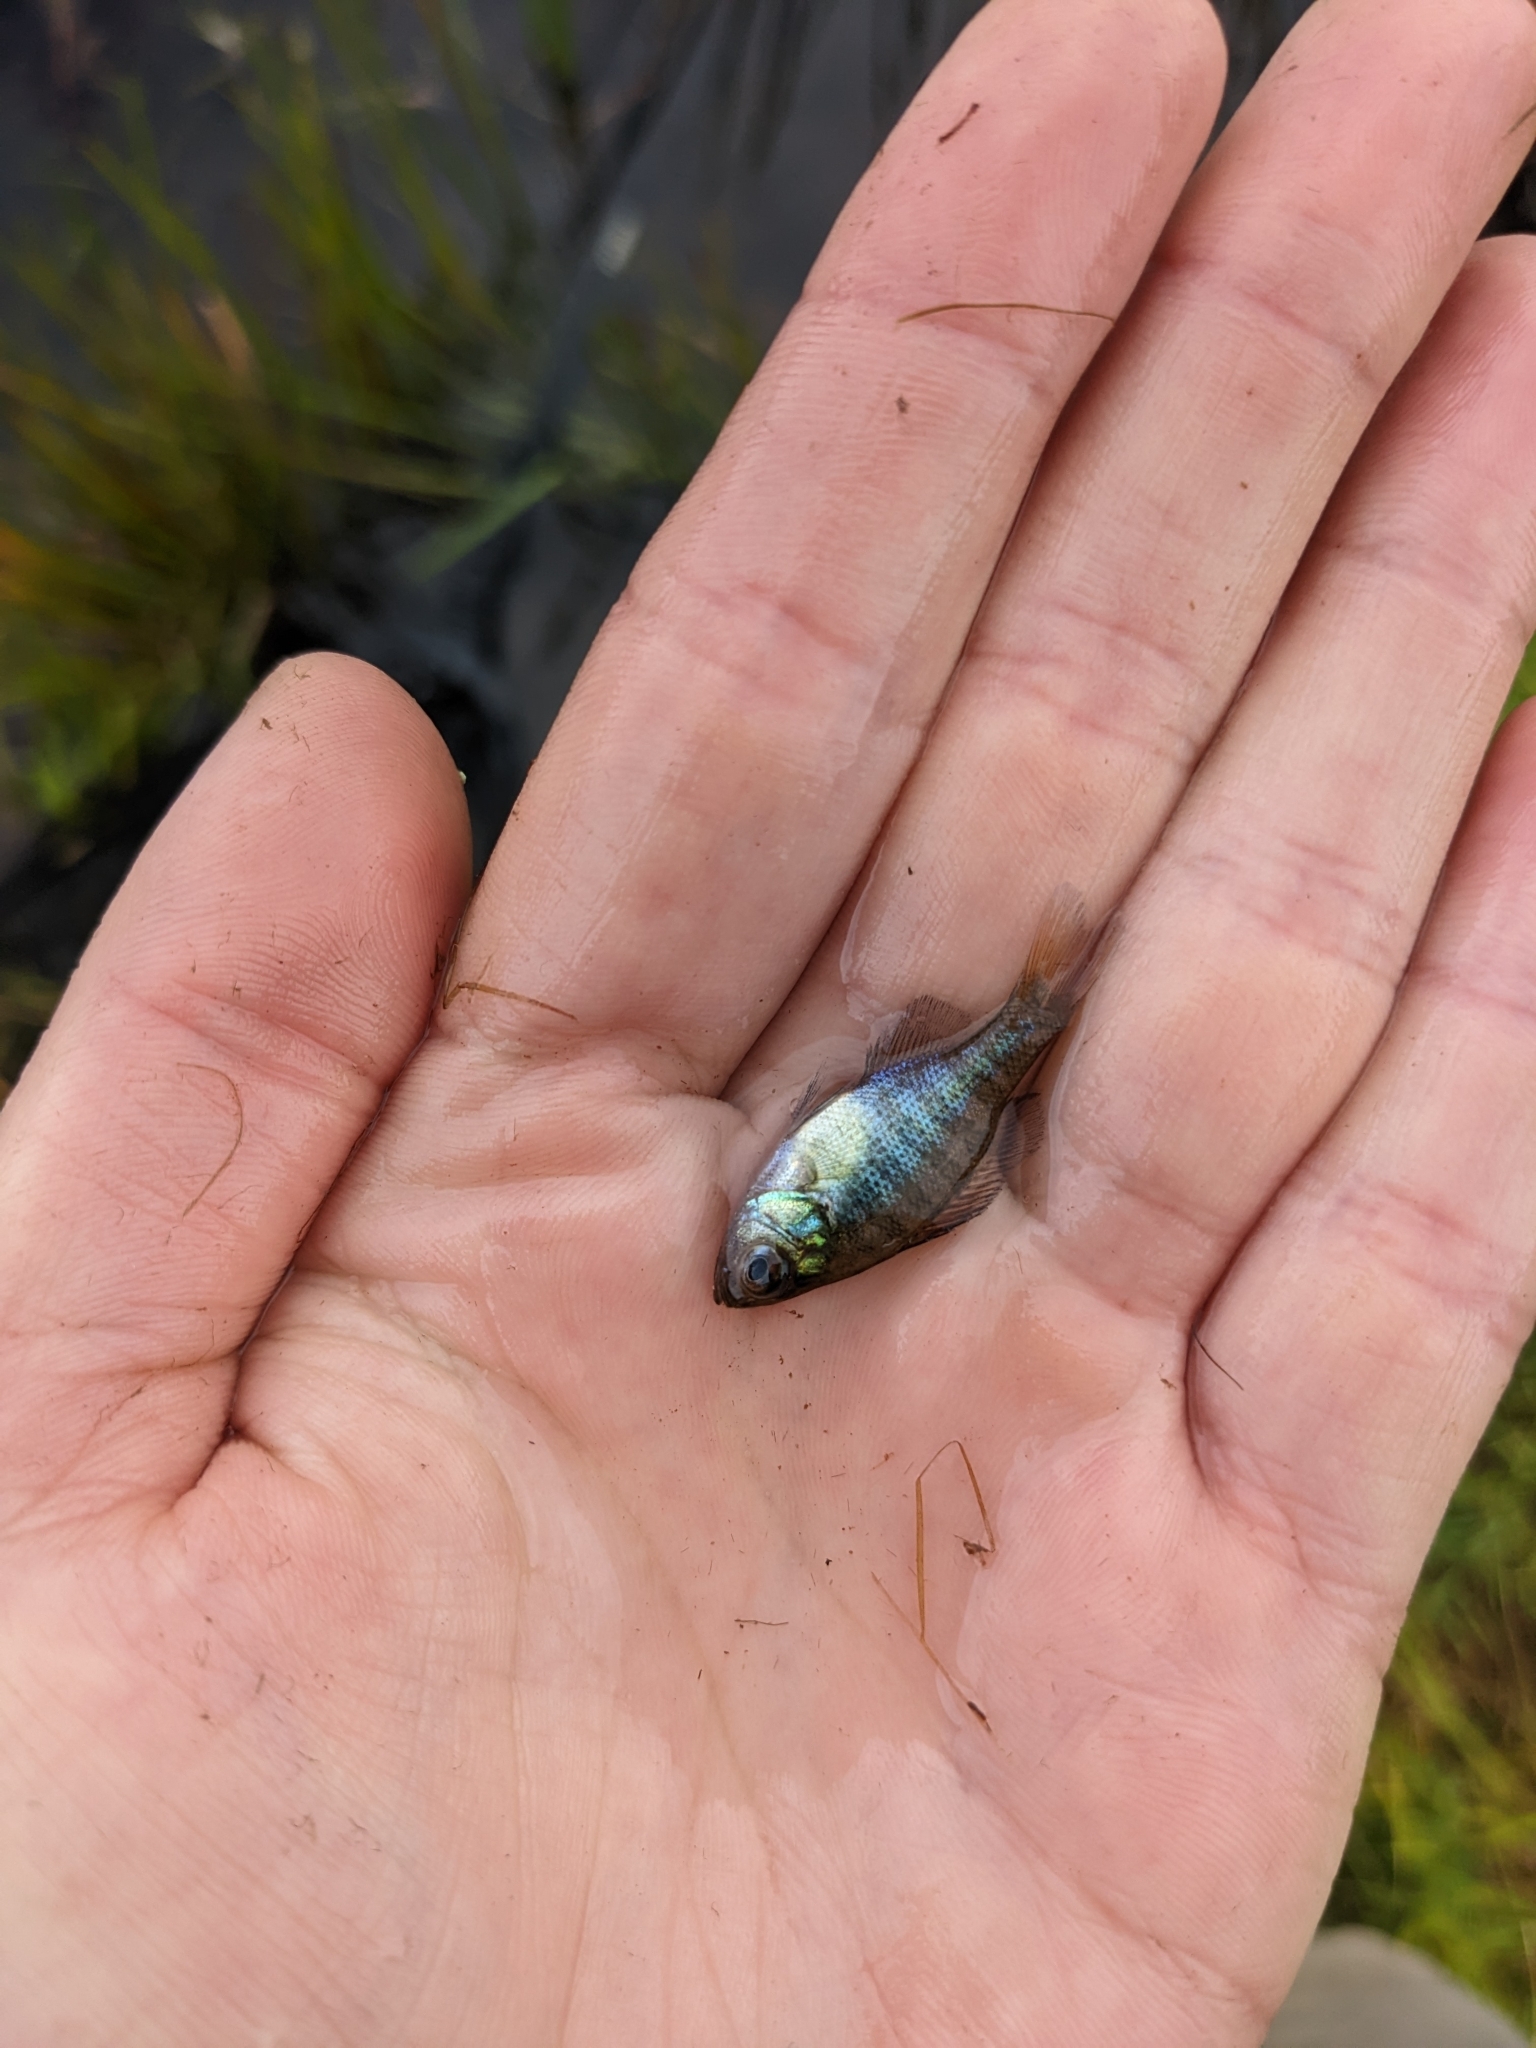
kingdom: Animalia
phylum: Chordata
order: Perciformes
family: Centrarchidae
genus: Lepomis
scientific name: Lepomis macrochirus
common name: Bluegill
